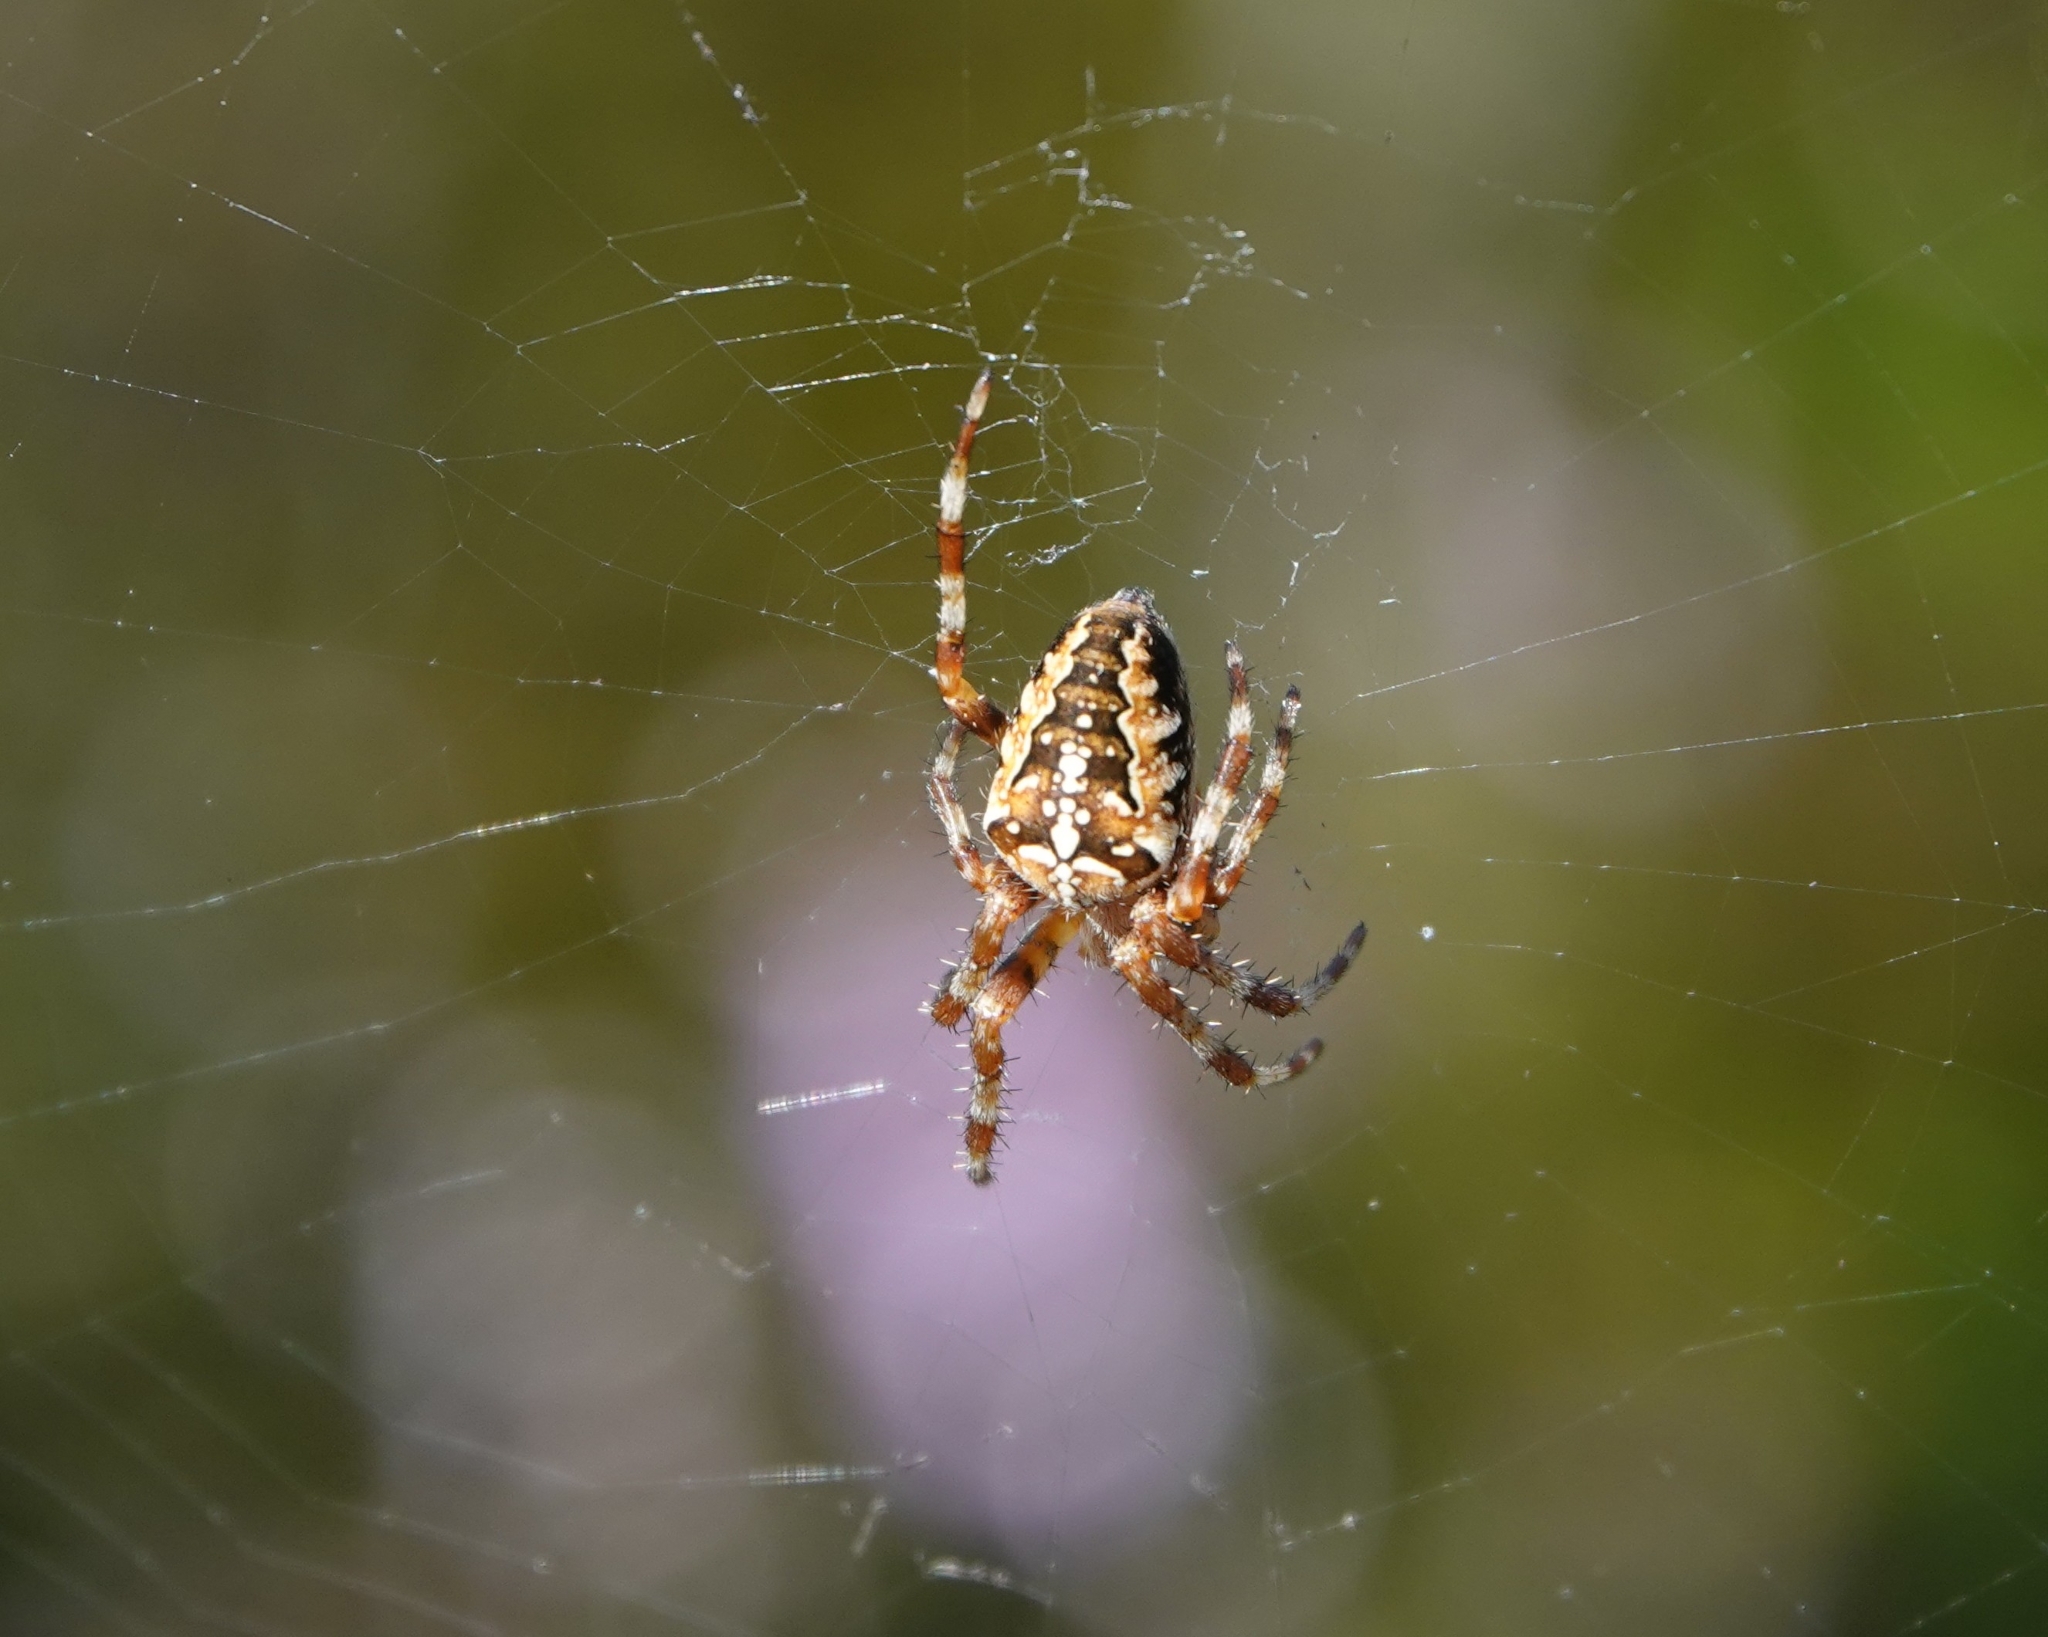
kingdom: Animalia
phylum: Arthropoda
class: Arachnida
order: Araneae
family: Araneidae
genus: Araneus
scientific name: Araneus diadematus
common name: Cross orbweaver
